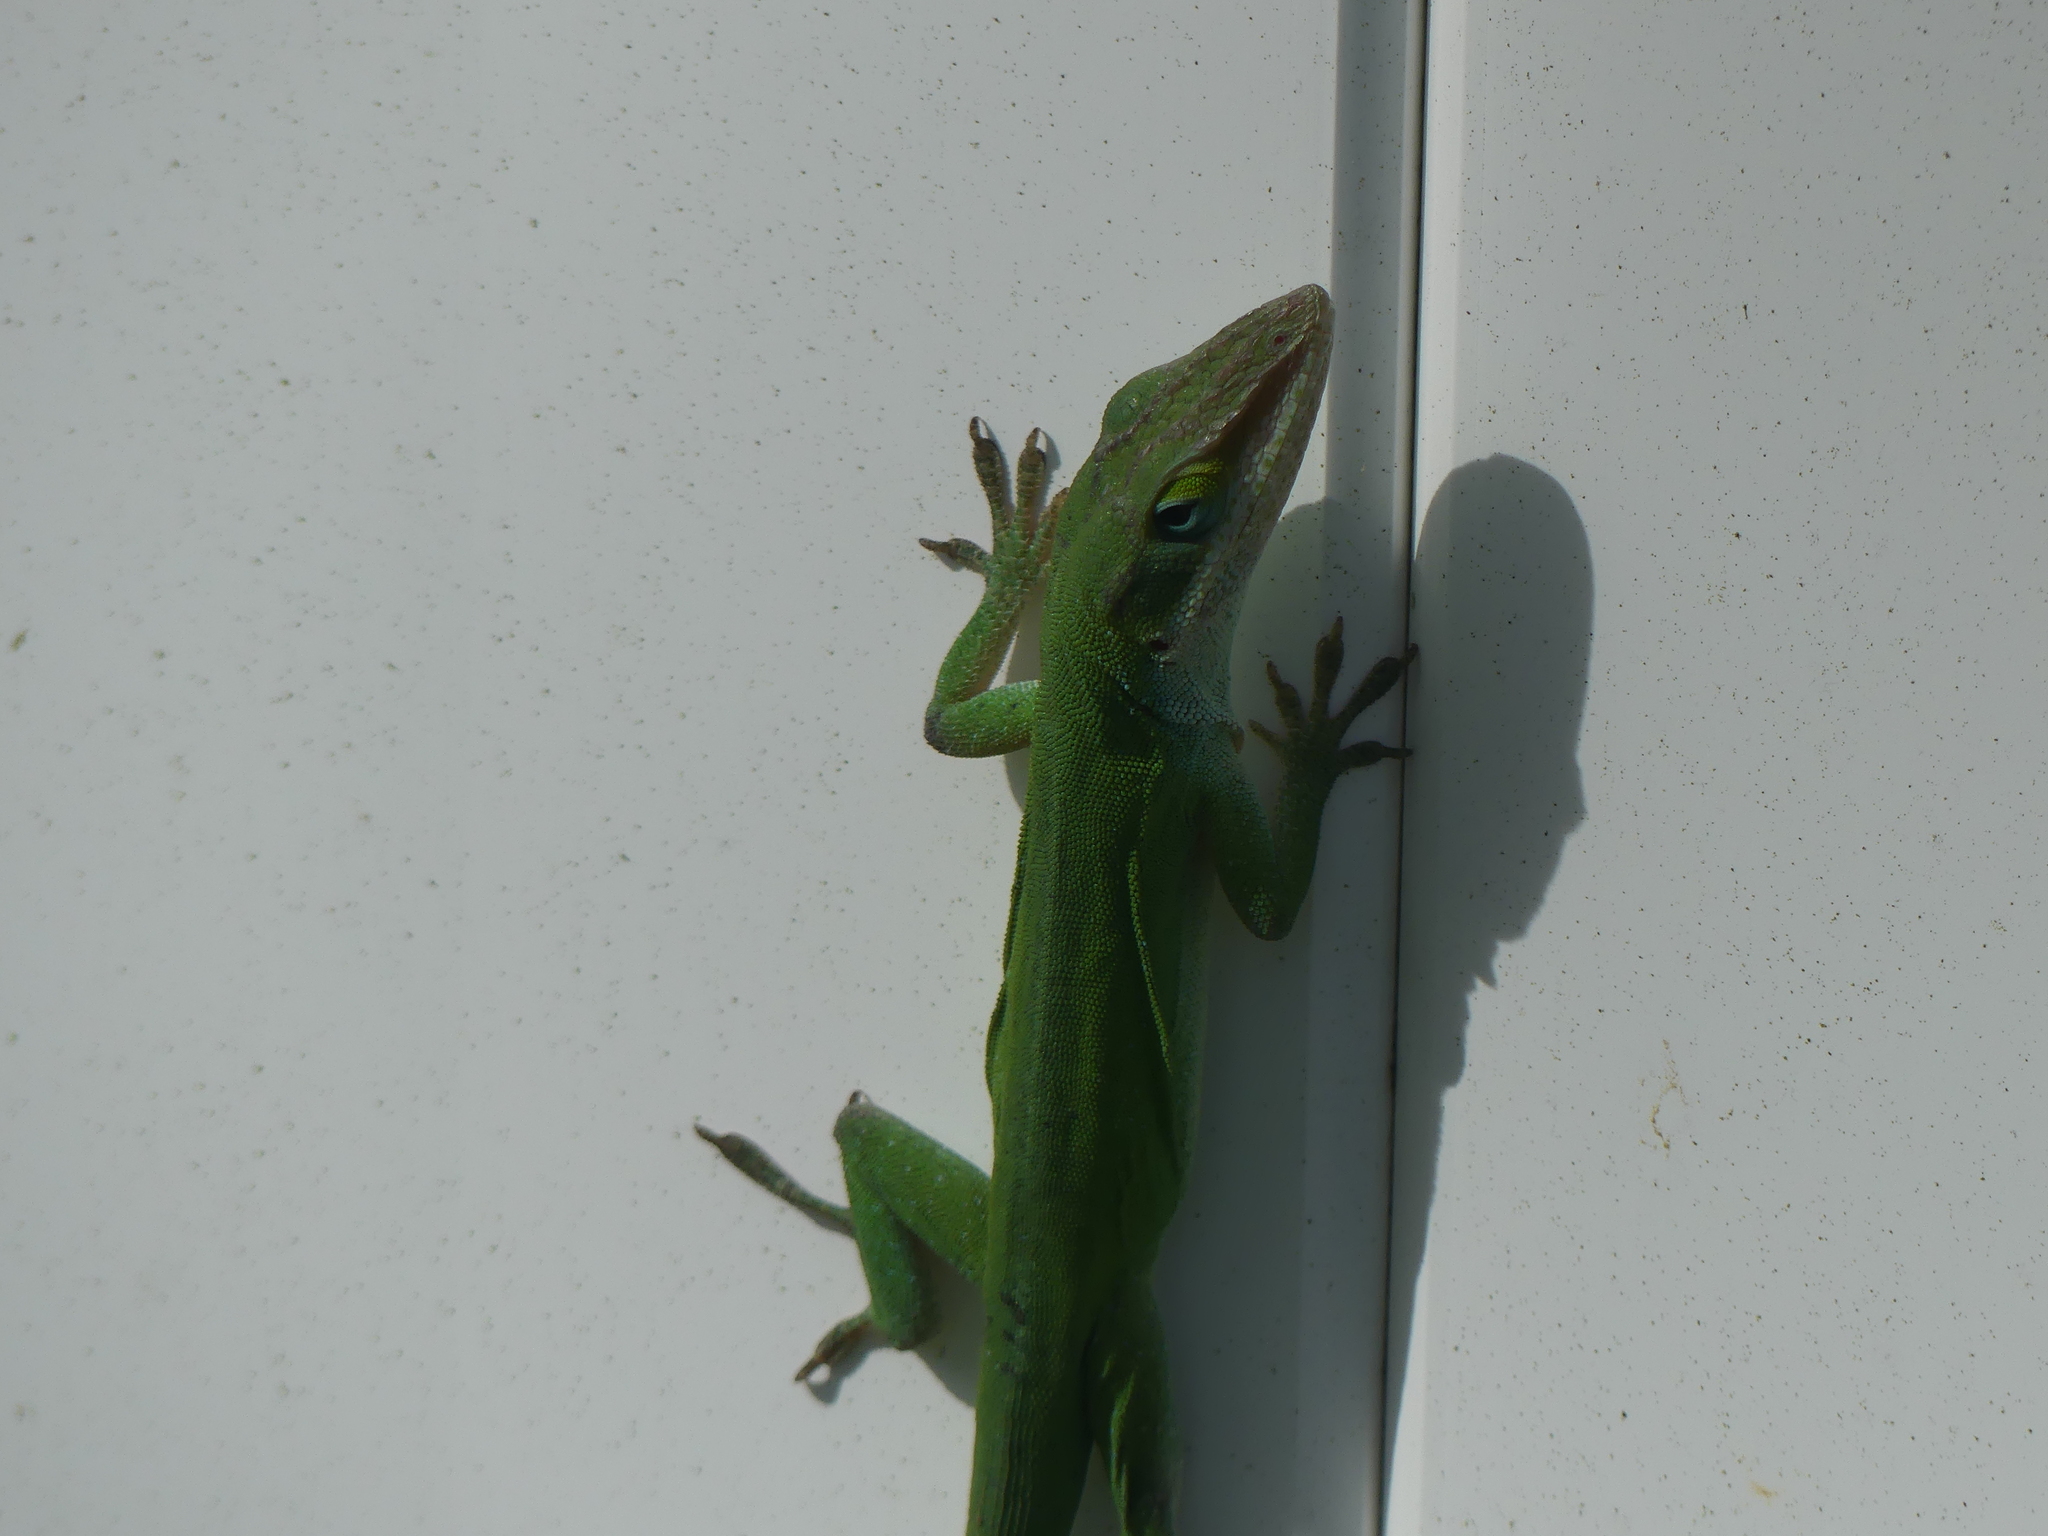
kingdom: Animalia
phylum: Chordata
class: Squamata
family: Dactyloidae
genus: Anolis
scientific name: Anolis carolinensis
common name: Green anole
